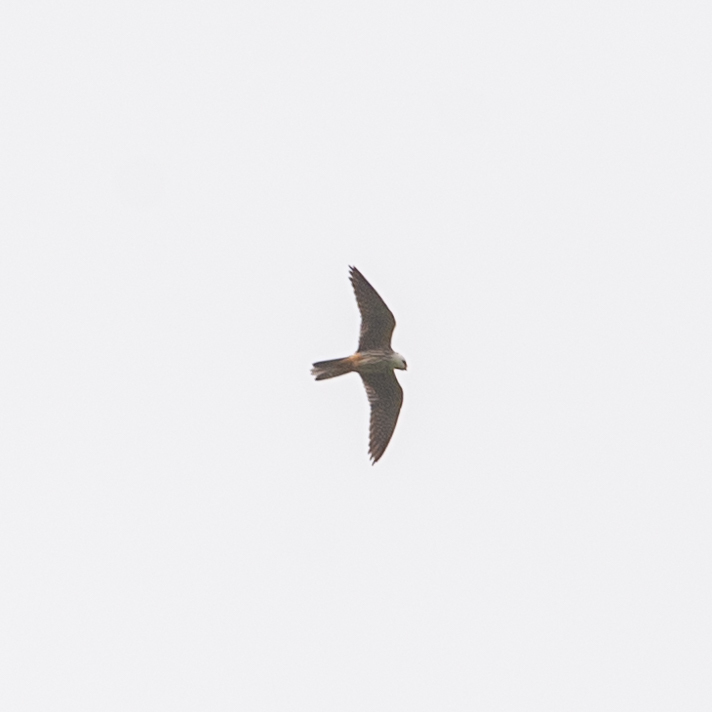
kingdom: Animalia
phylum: Chordata
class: Aves
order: Falconiformes
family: Falconidae
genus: Falco
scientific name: Falco subbuteo
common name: Eurasian hobby
